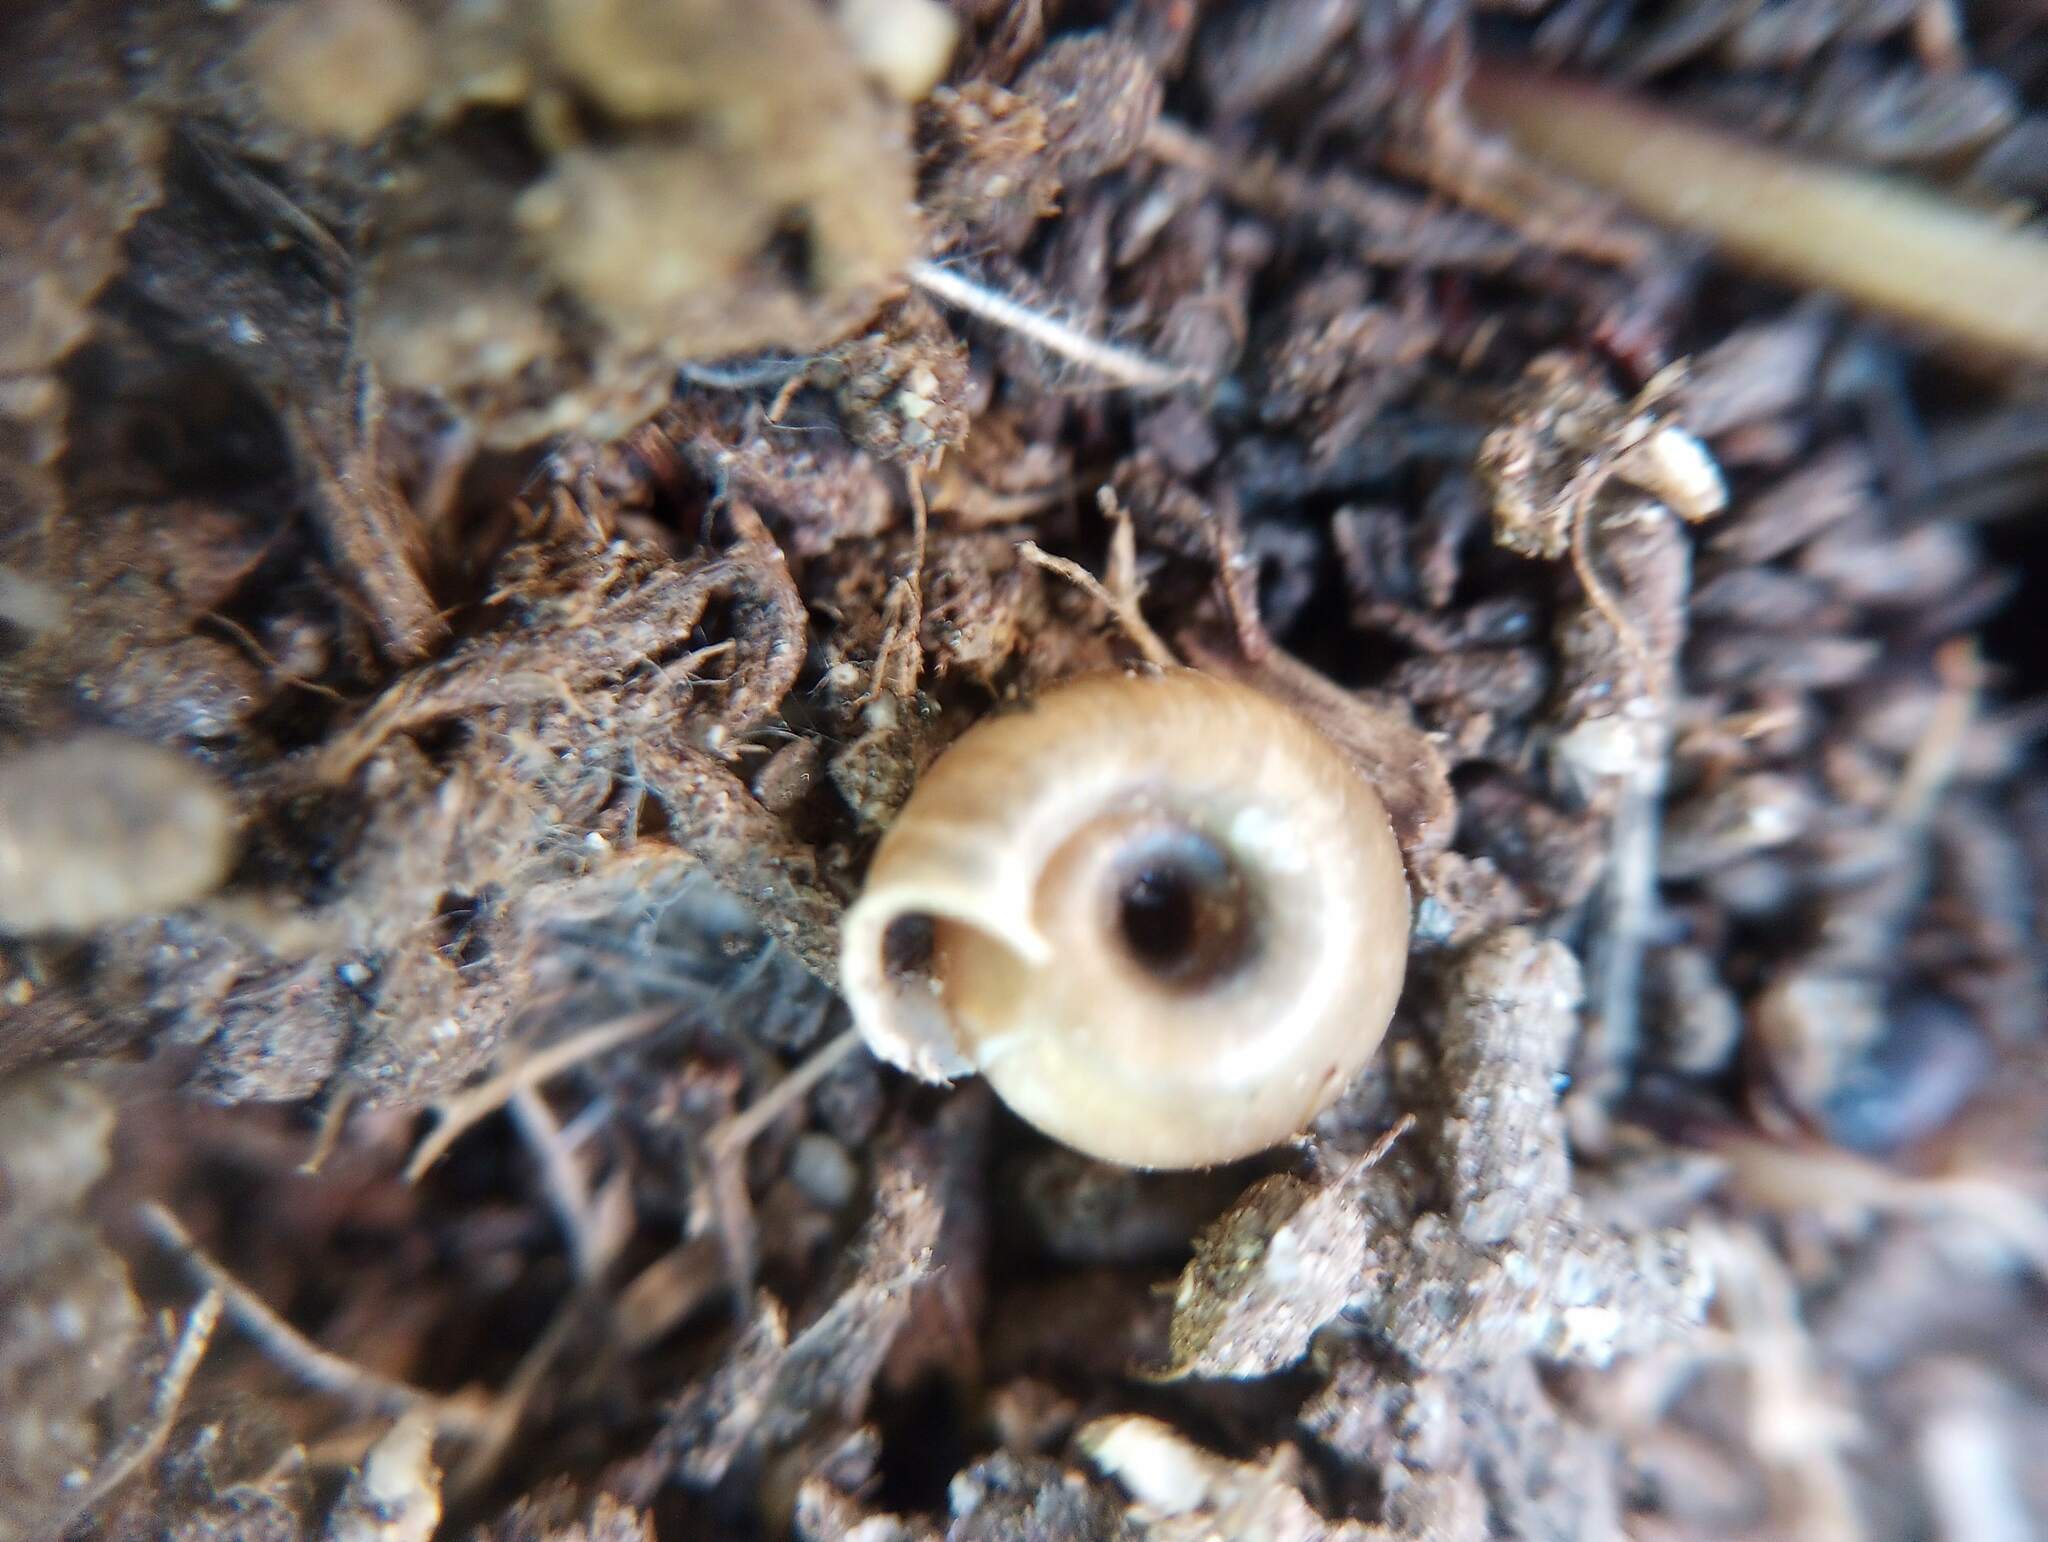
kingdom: Animalia
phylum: Mollusca
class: Gastropoda
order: Stylommatophora
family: Polygyridae
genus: Polygyra
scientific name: Polygyra cereolus
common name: Southern flatcone snail
